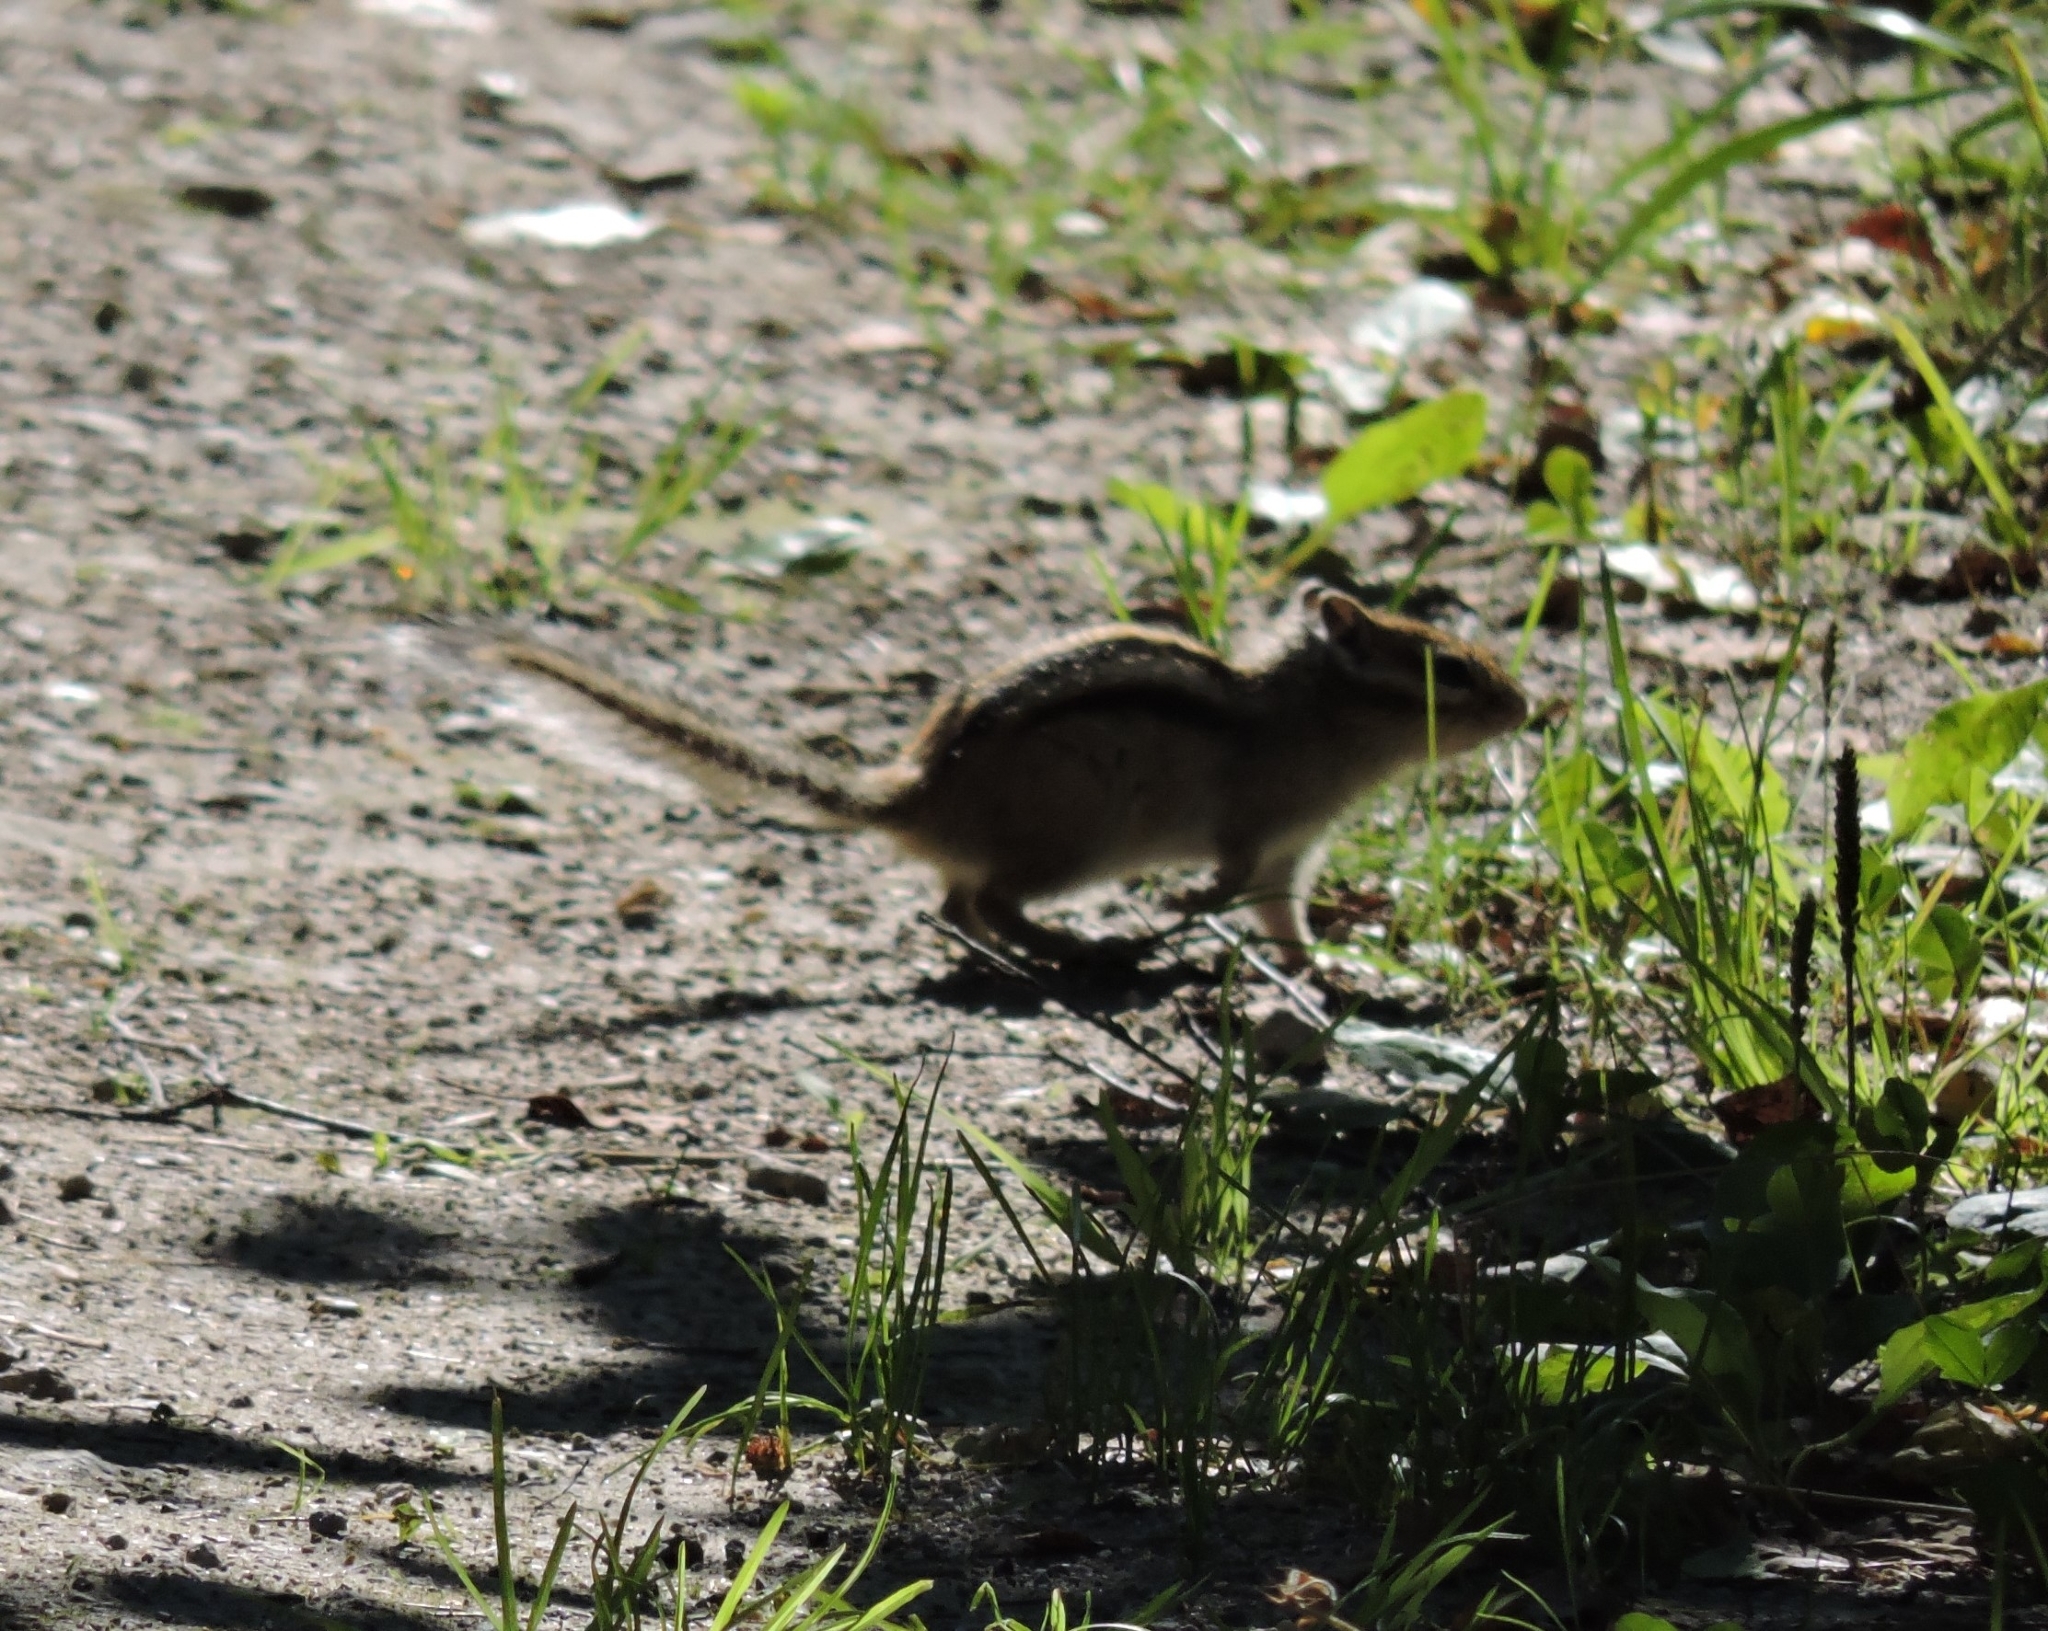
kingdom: Animalia
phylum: Chordata
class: Mammalia
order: Rodentia
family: Sciuridae
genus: Tamias
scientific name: Tamias sibiricus
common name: Siberian chipmunk
